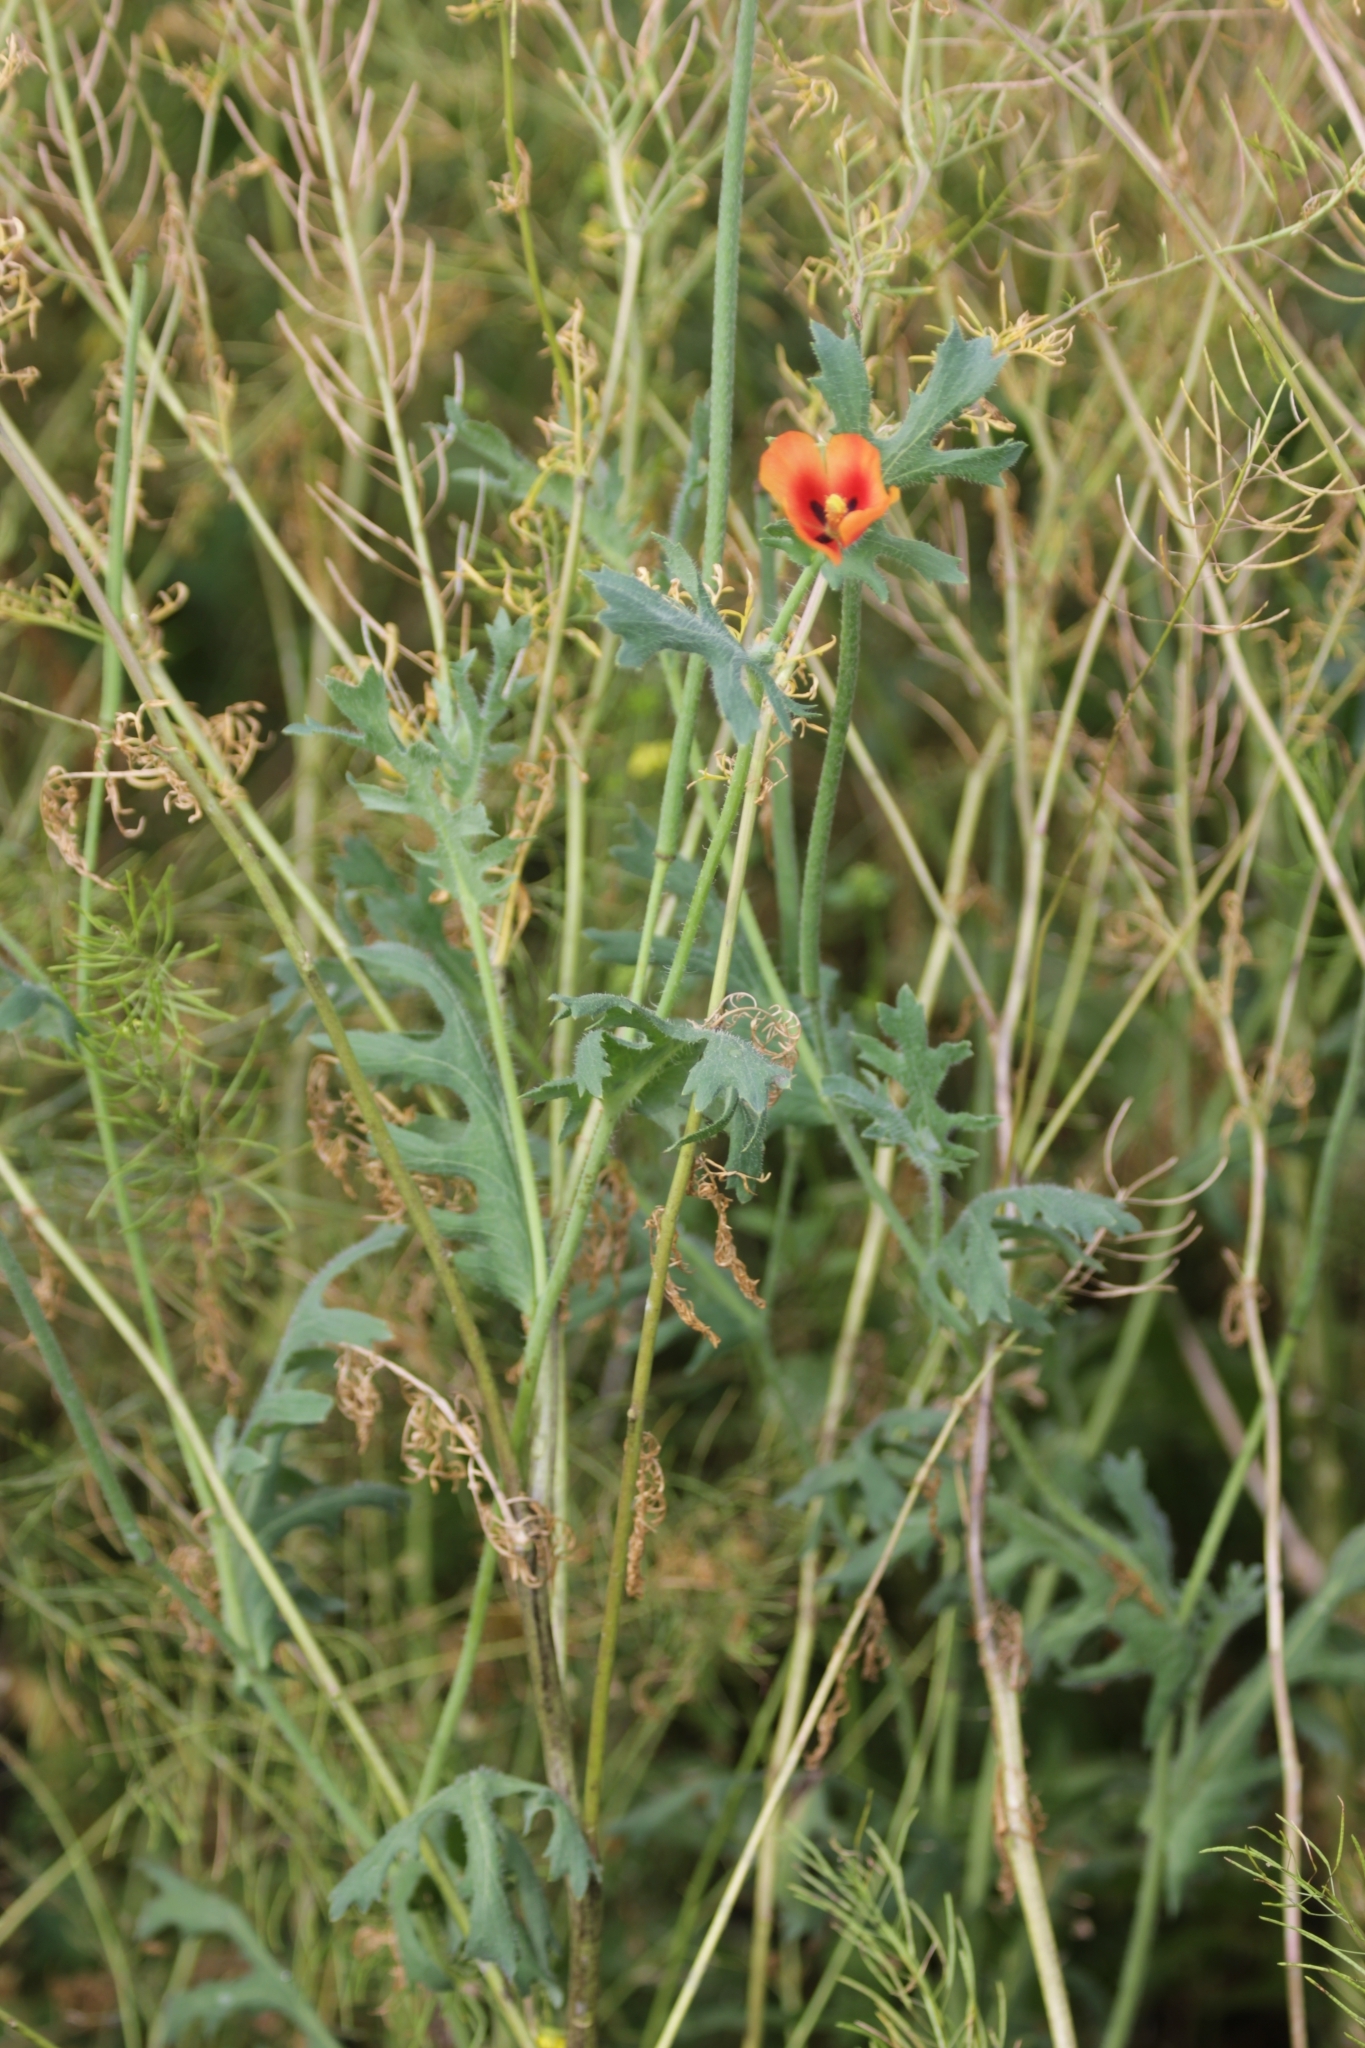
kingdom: Plantae
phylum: Tracheophyta
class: Magnoliopsida
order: Ranunculales
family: Papaveraceae
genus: Glaucium
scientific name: Glaucium corniculatum
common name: Red horned-poppy
